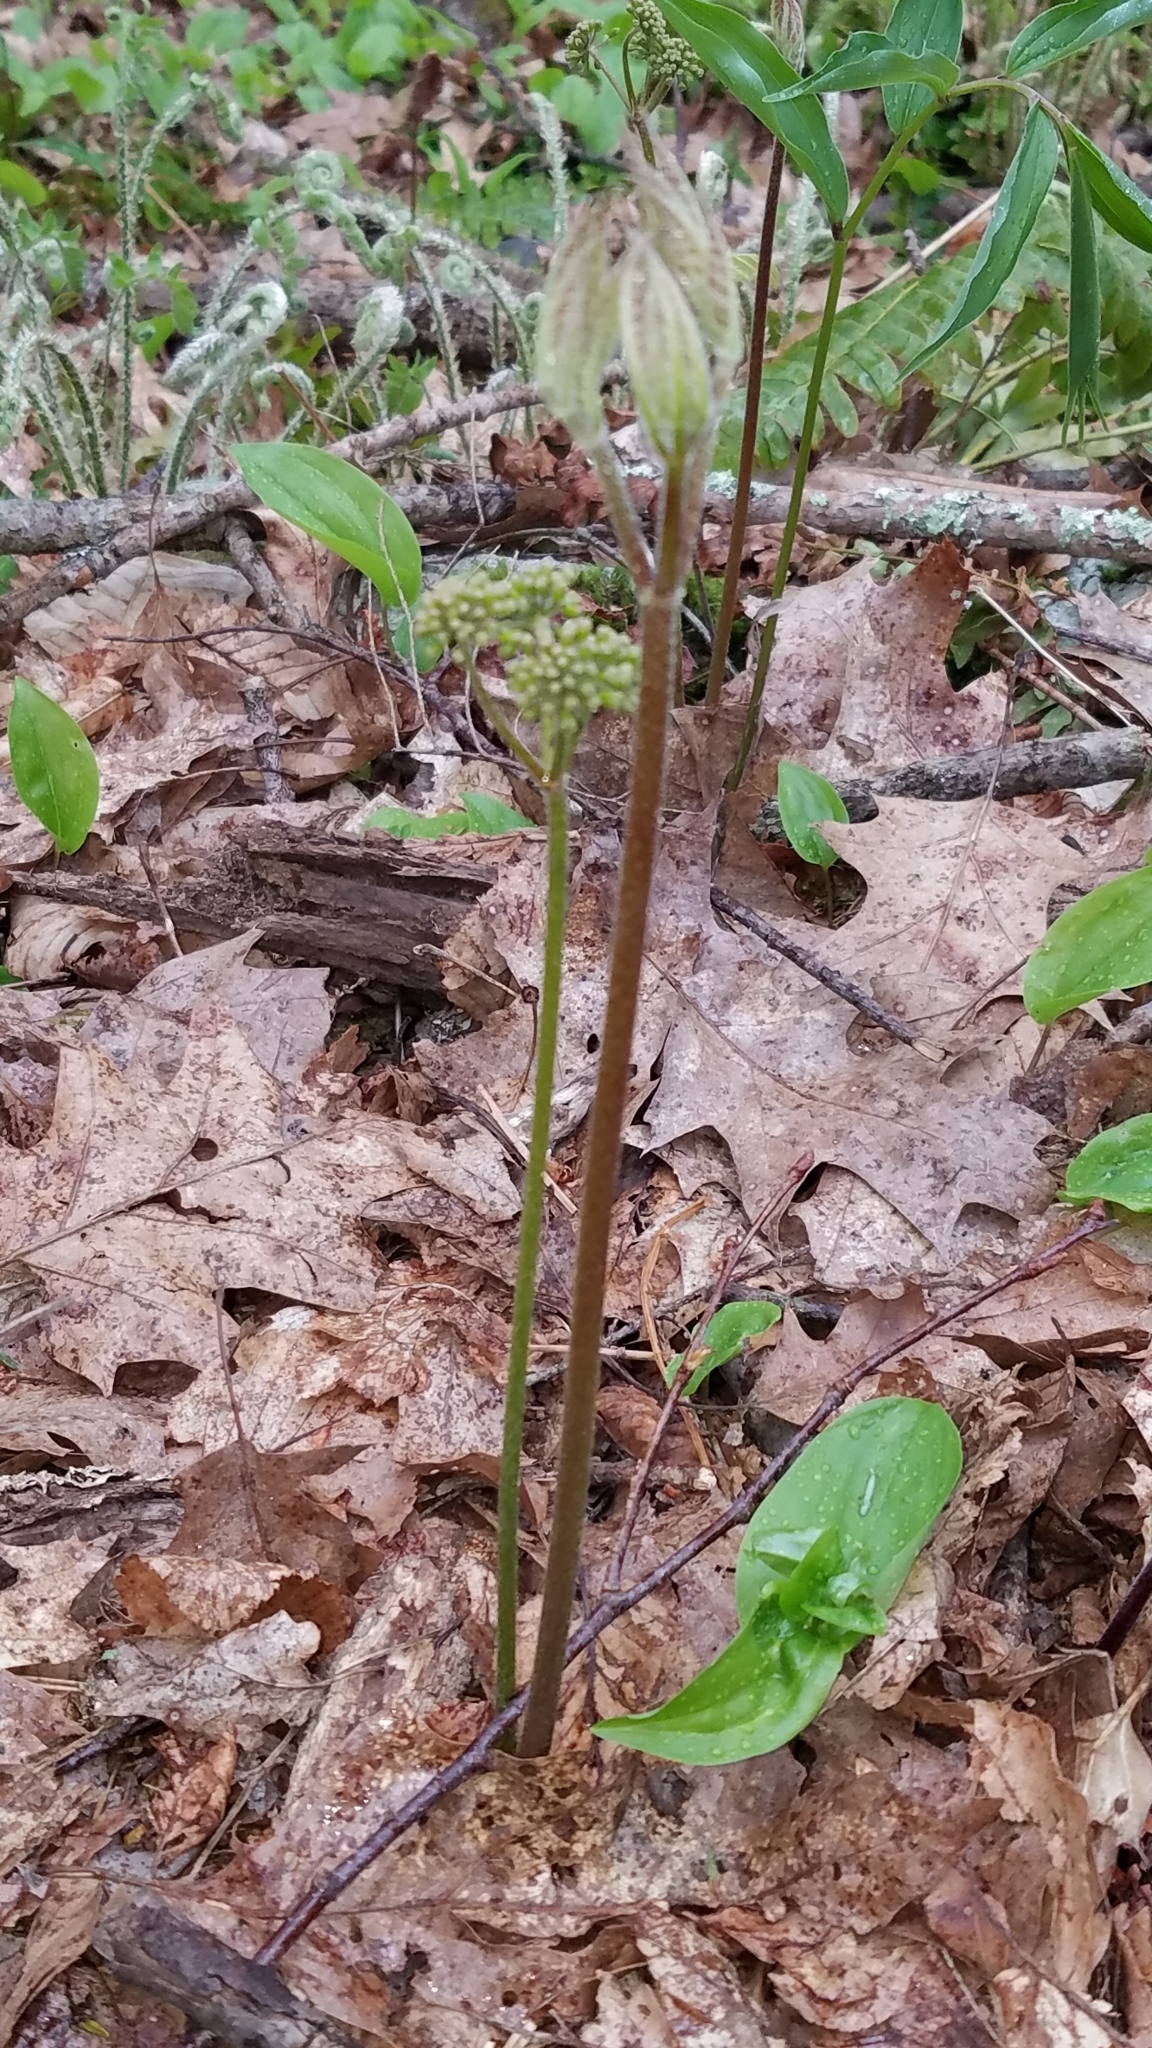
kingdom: Plantae
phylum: Tracheophyta
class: Magnoliopsida
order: Apiales
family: Araliaceae
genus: Aralia
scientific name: Aralia nudicaulis
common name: Wild sarsaparilla
